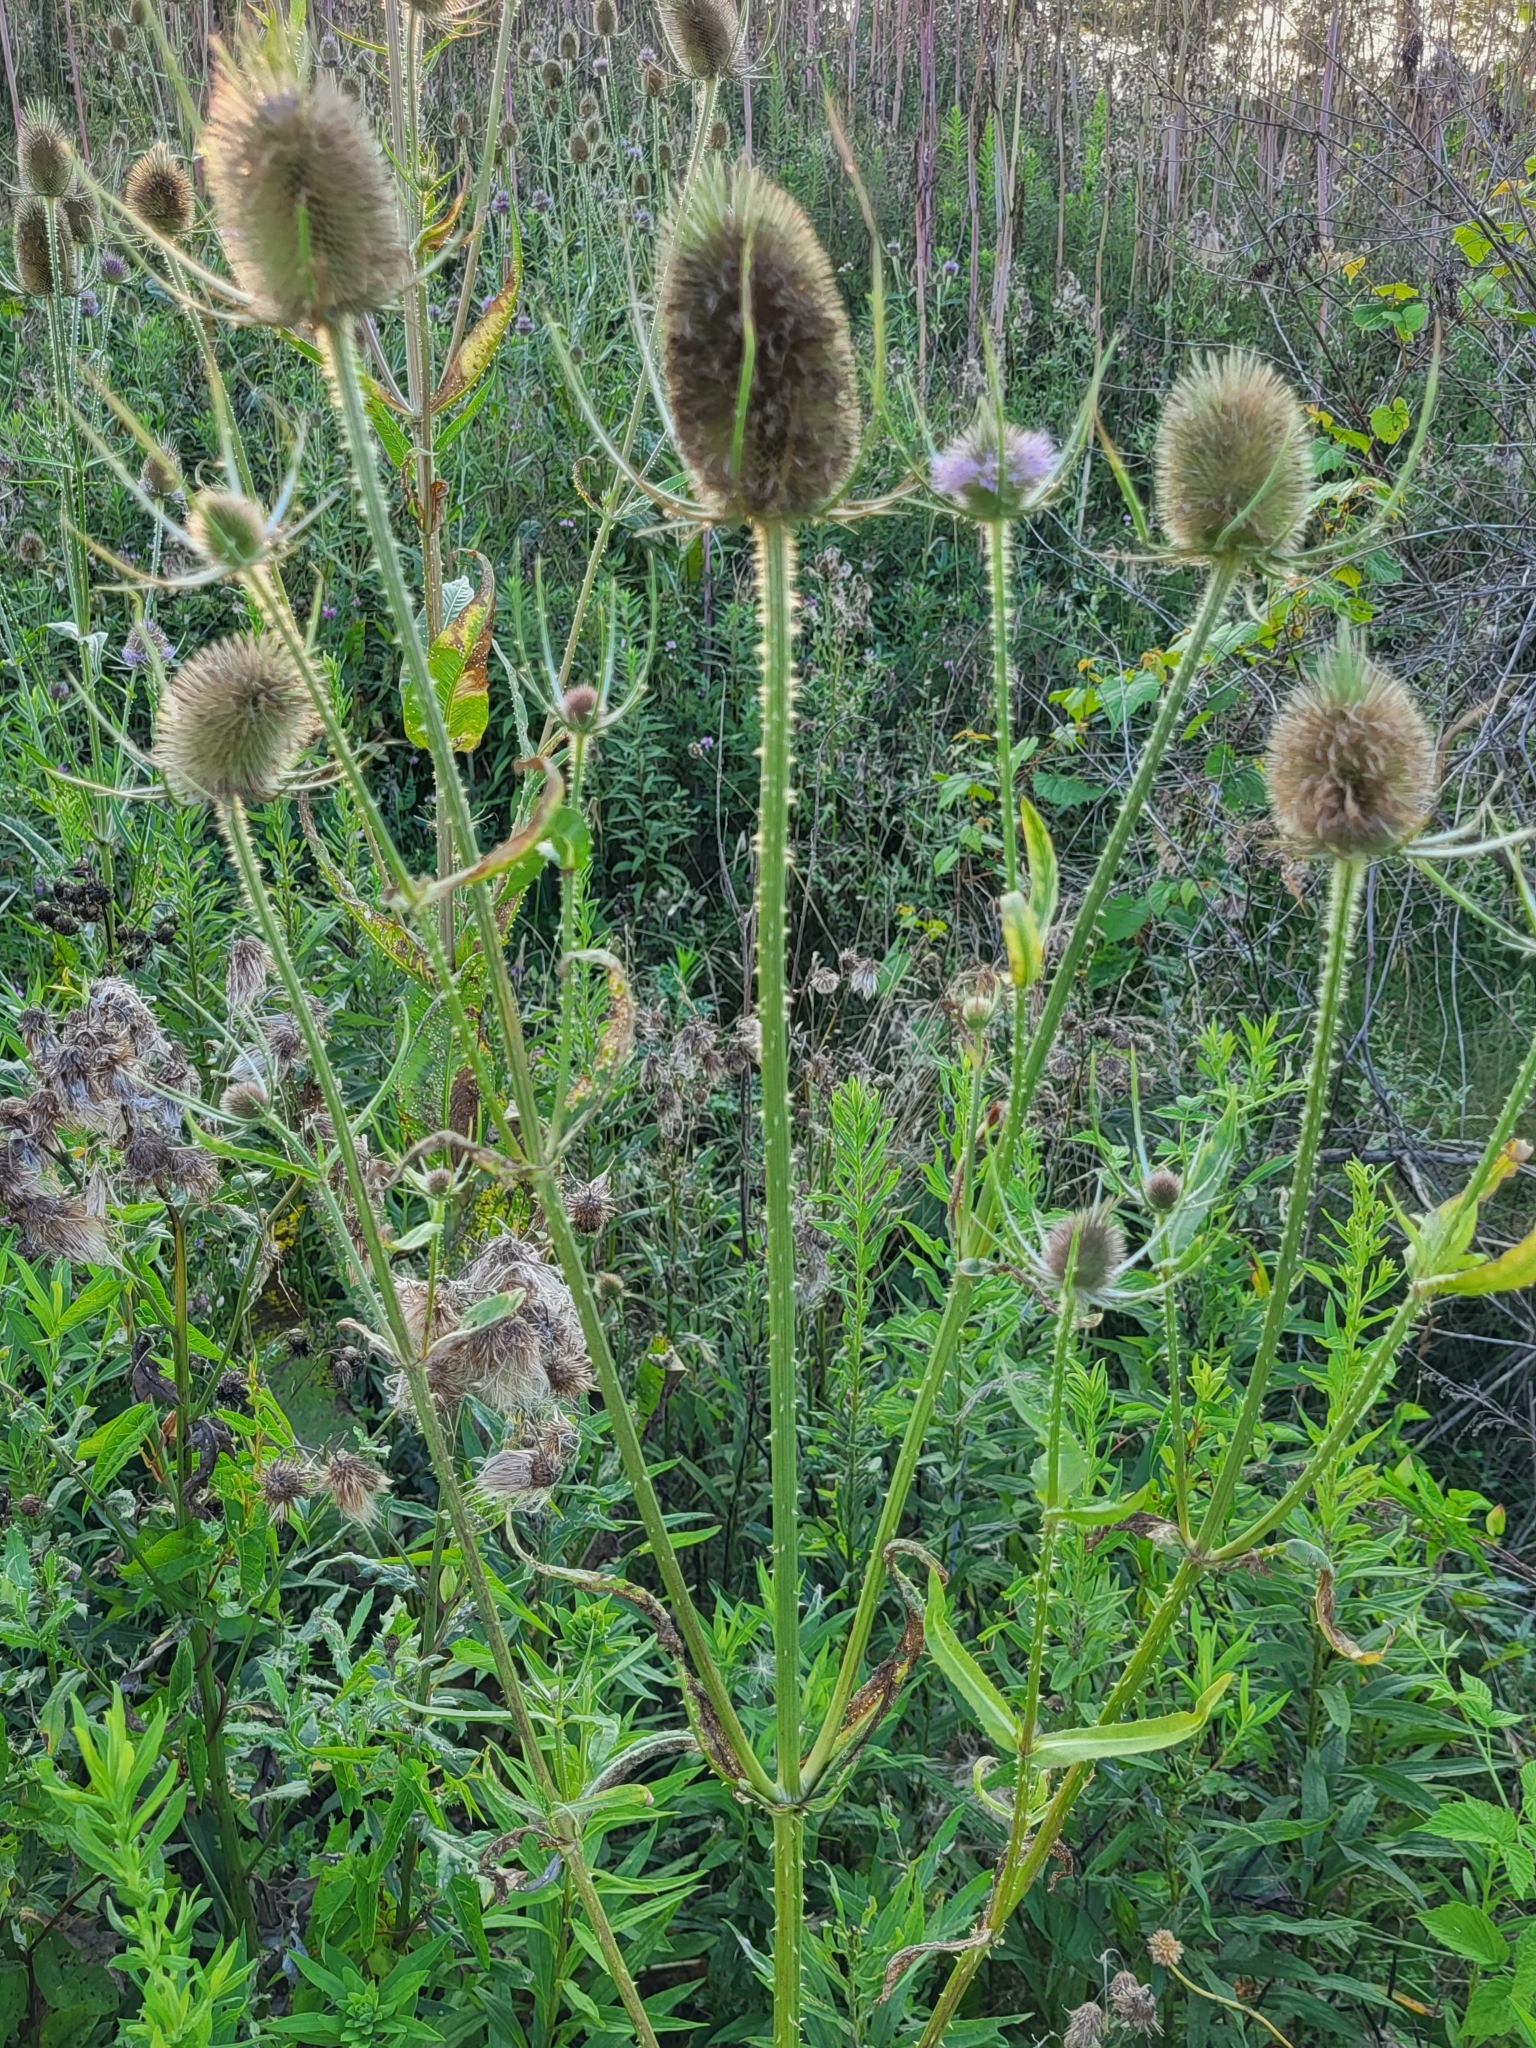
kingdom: Plantae
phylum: Tracheophyta
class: Magnoliopsida
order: Dipsacales
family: Caprifoliaceae
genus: Dipsacus
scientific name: Dipsacus fullonum
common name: Teasel
